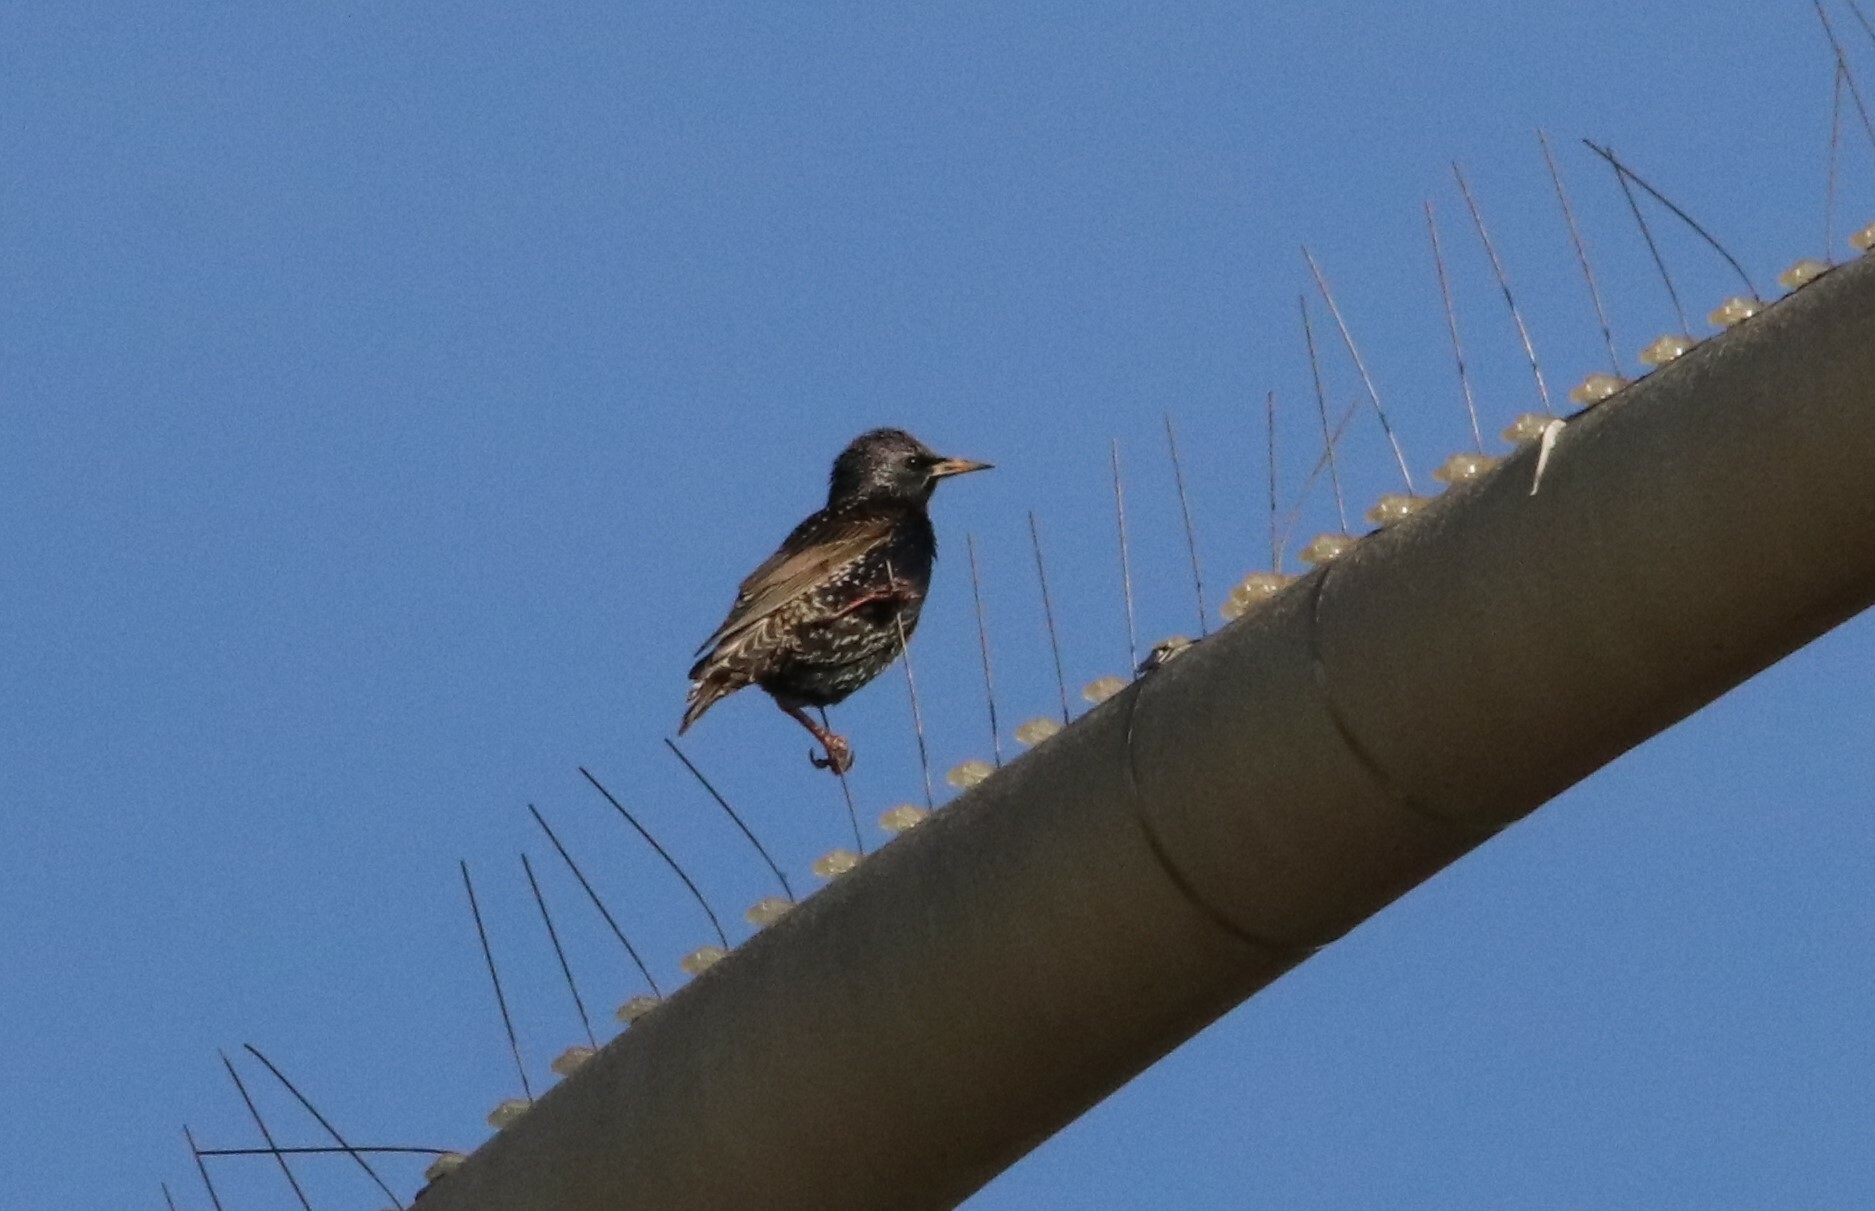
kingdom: Animalia
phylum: Chordata
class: Aves
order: Passeriformes
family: Sturnidae
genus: Sturnus
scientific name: Sturnus vulgaris
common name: Common starling
